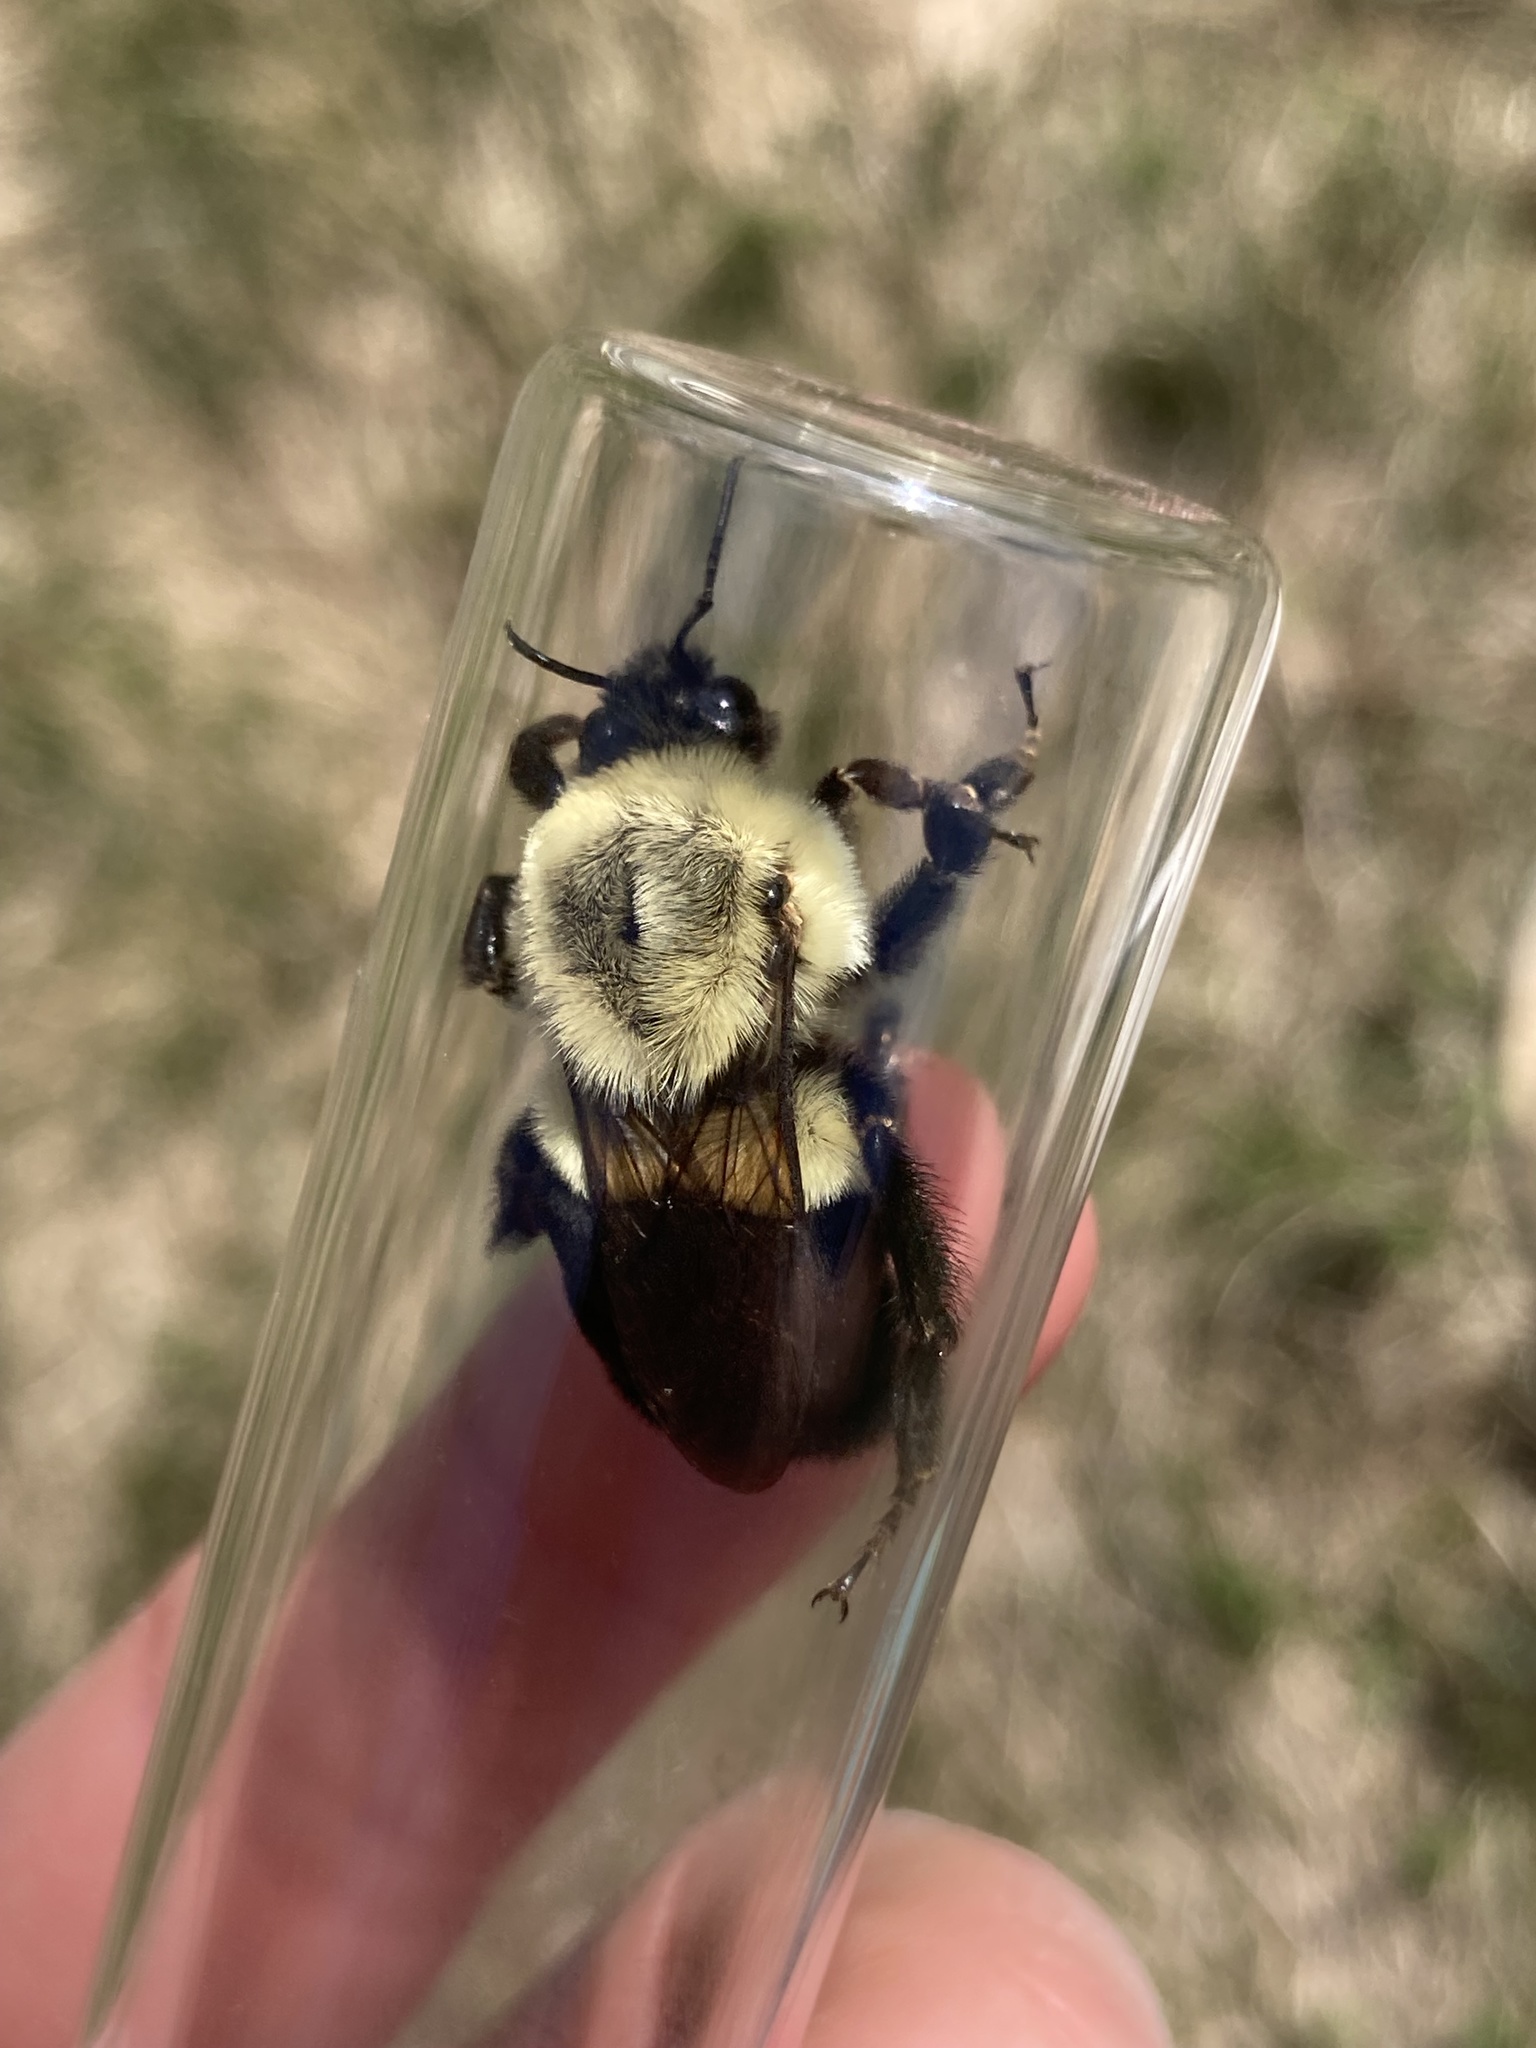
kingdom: Animalia
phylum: Arthropoda
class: Insecta
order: Hymenoptera
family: Apidae
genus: Bombus
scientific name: Bombus impatiens
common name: Common eastern bumble bee
